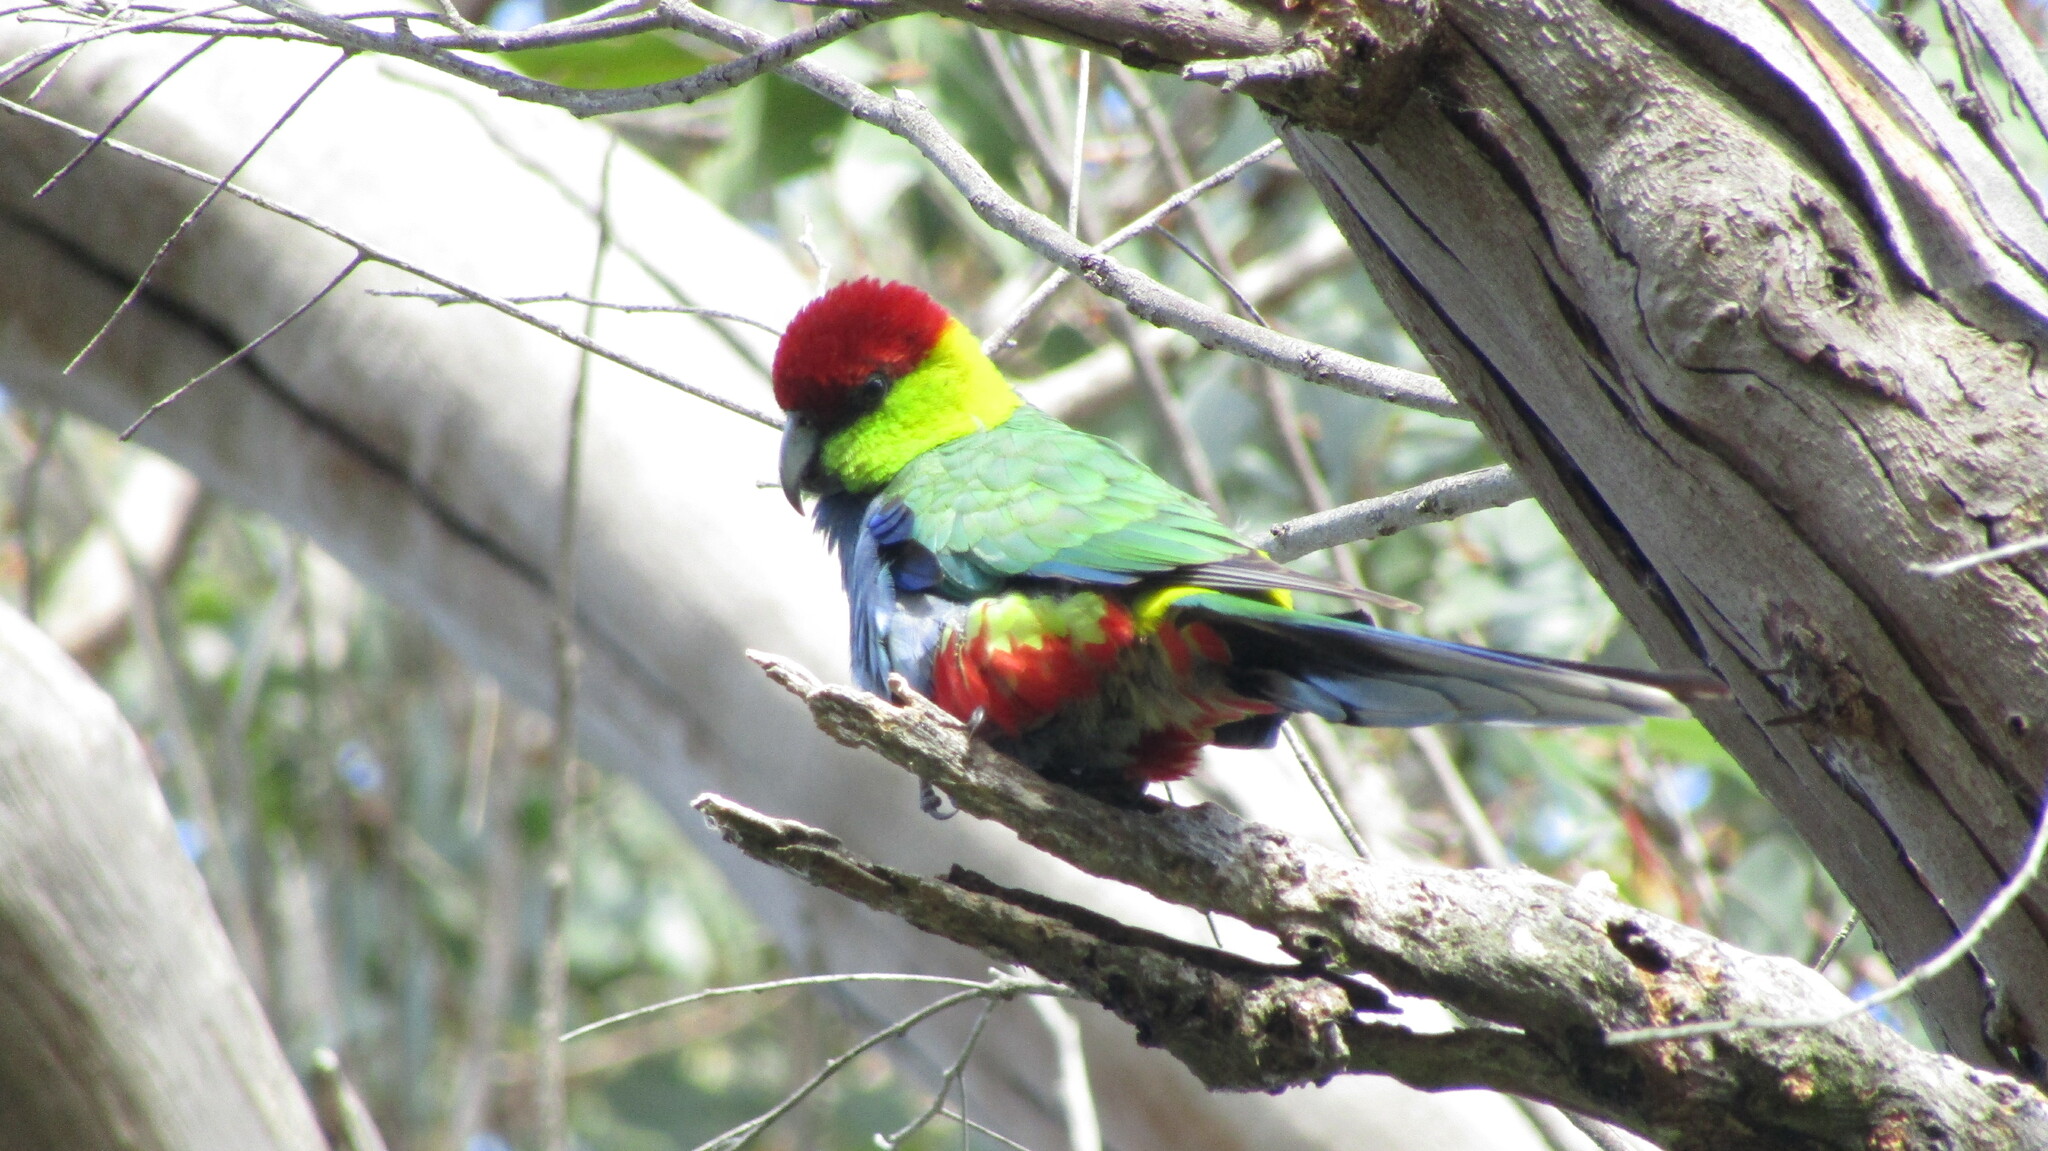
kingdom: Animalia
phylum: Chordata
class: Aves
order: Psittaciformes
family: Psittacidae
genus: Purpureicephalus
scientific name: Purpureicephalus spurius
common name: Red-capped parrot
